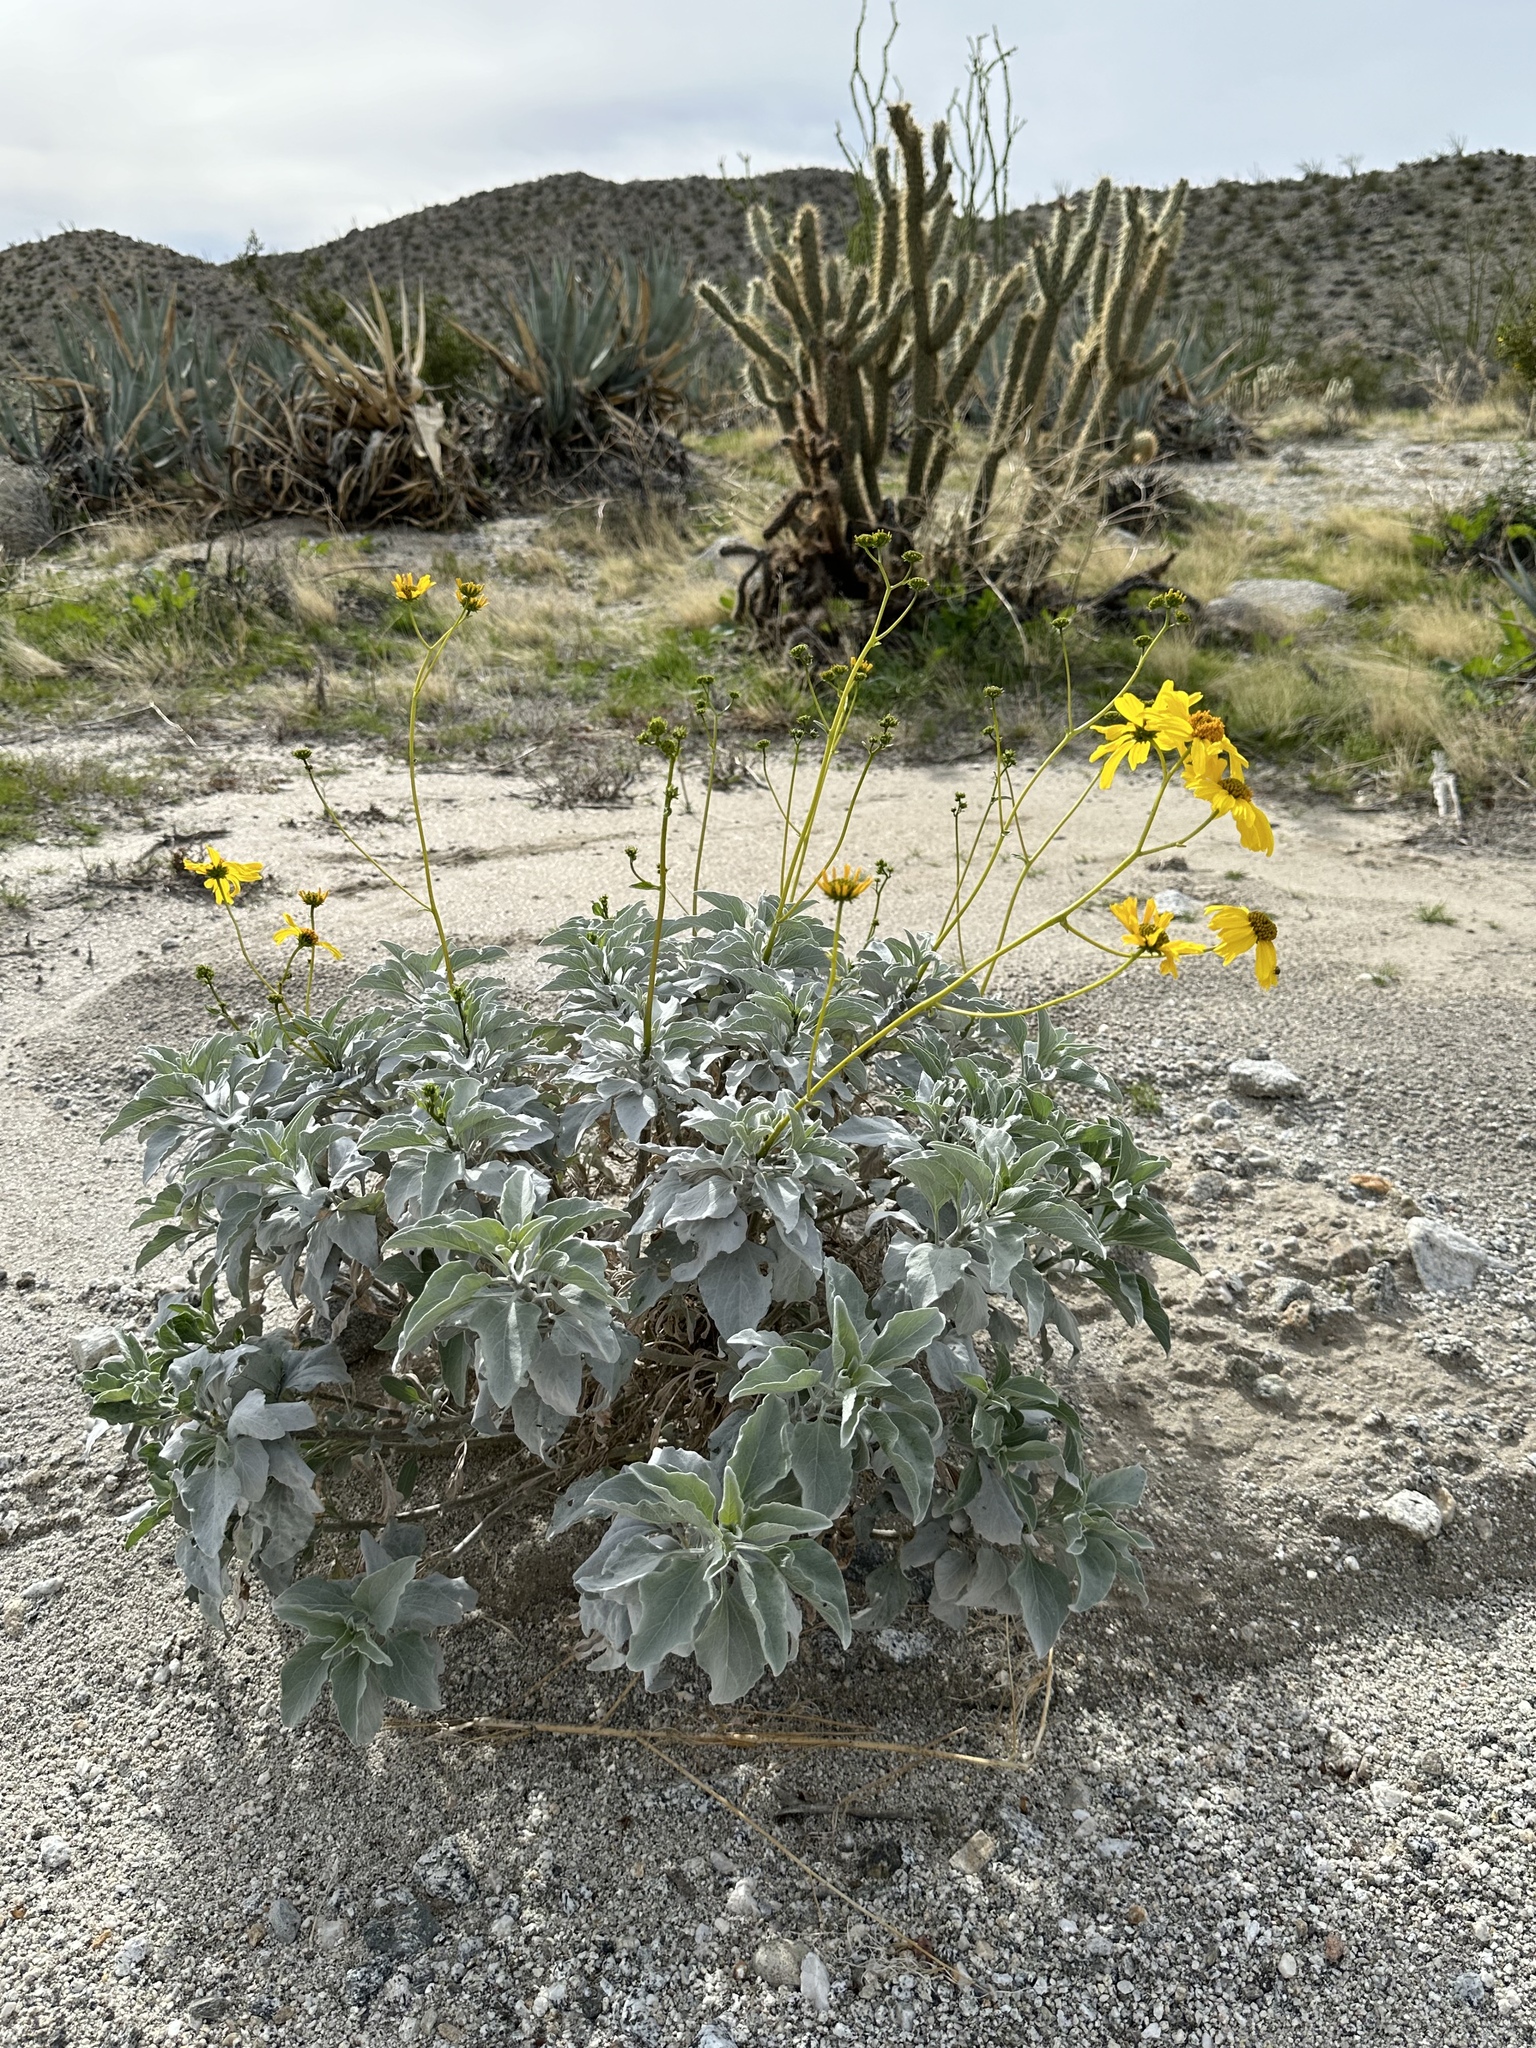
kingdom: Plantae
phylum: Tracheophyta
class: Magnoliopsida
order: Asterales
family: Asteraceae
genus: Encelia
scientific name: Encelia farinosa
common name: Brittlebush
